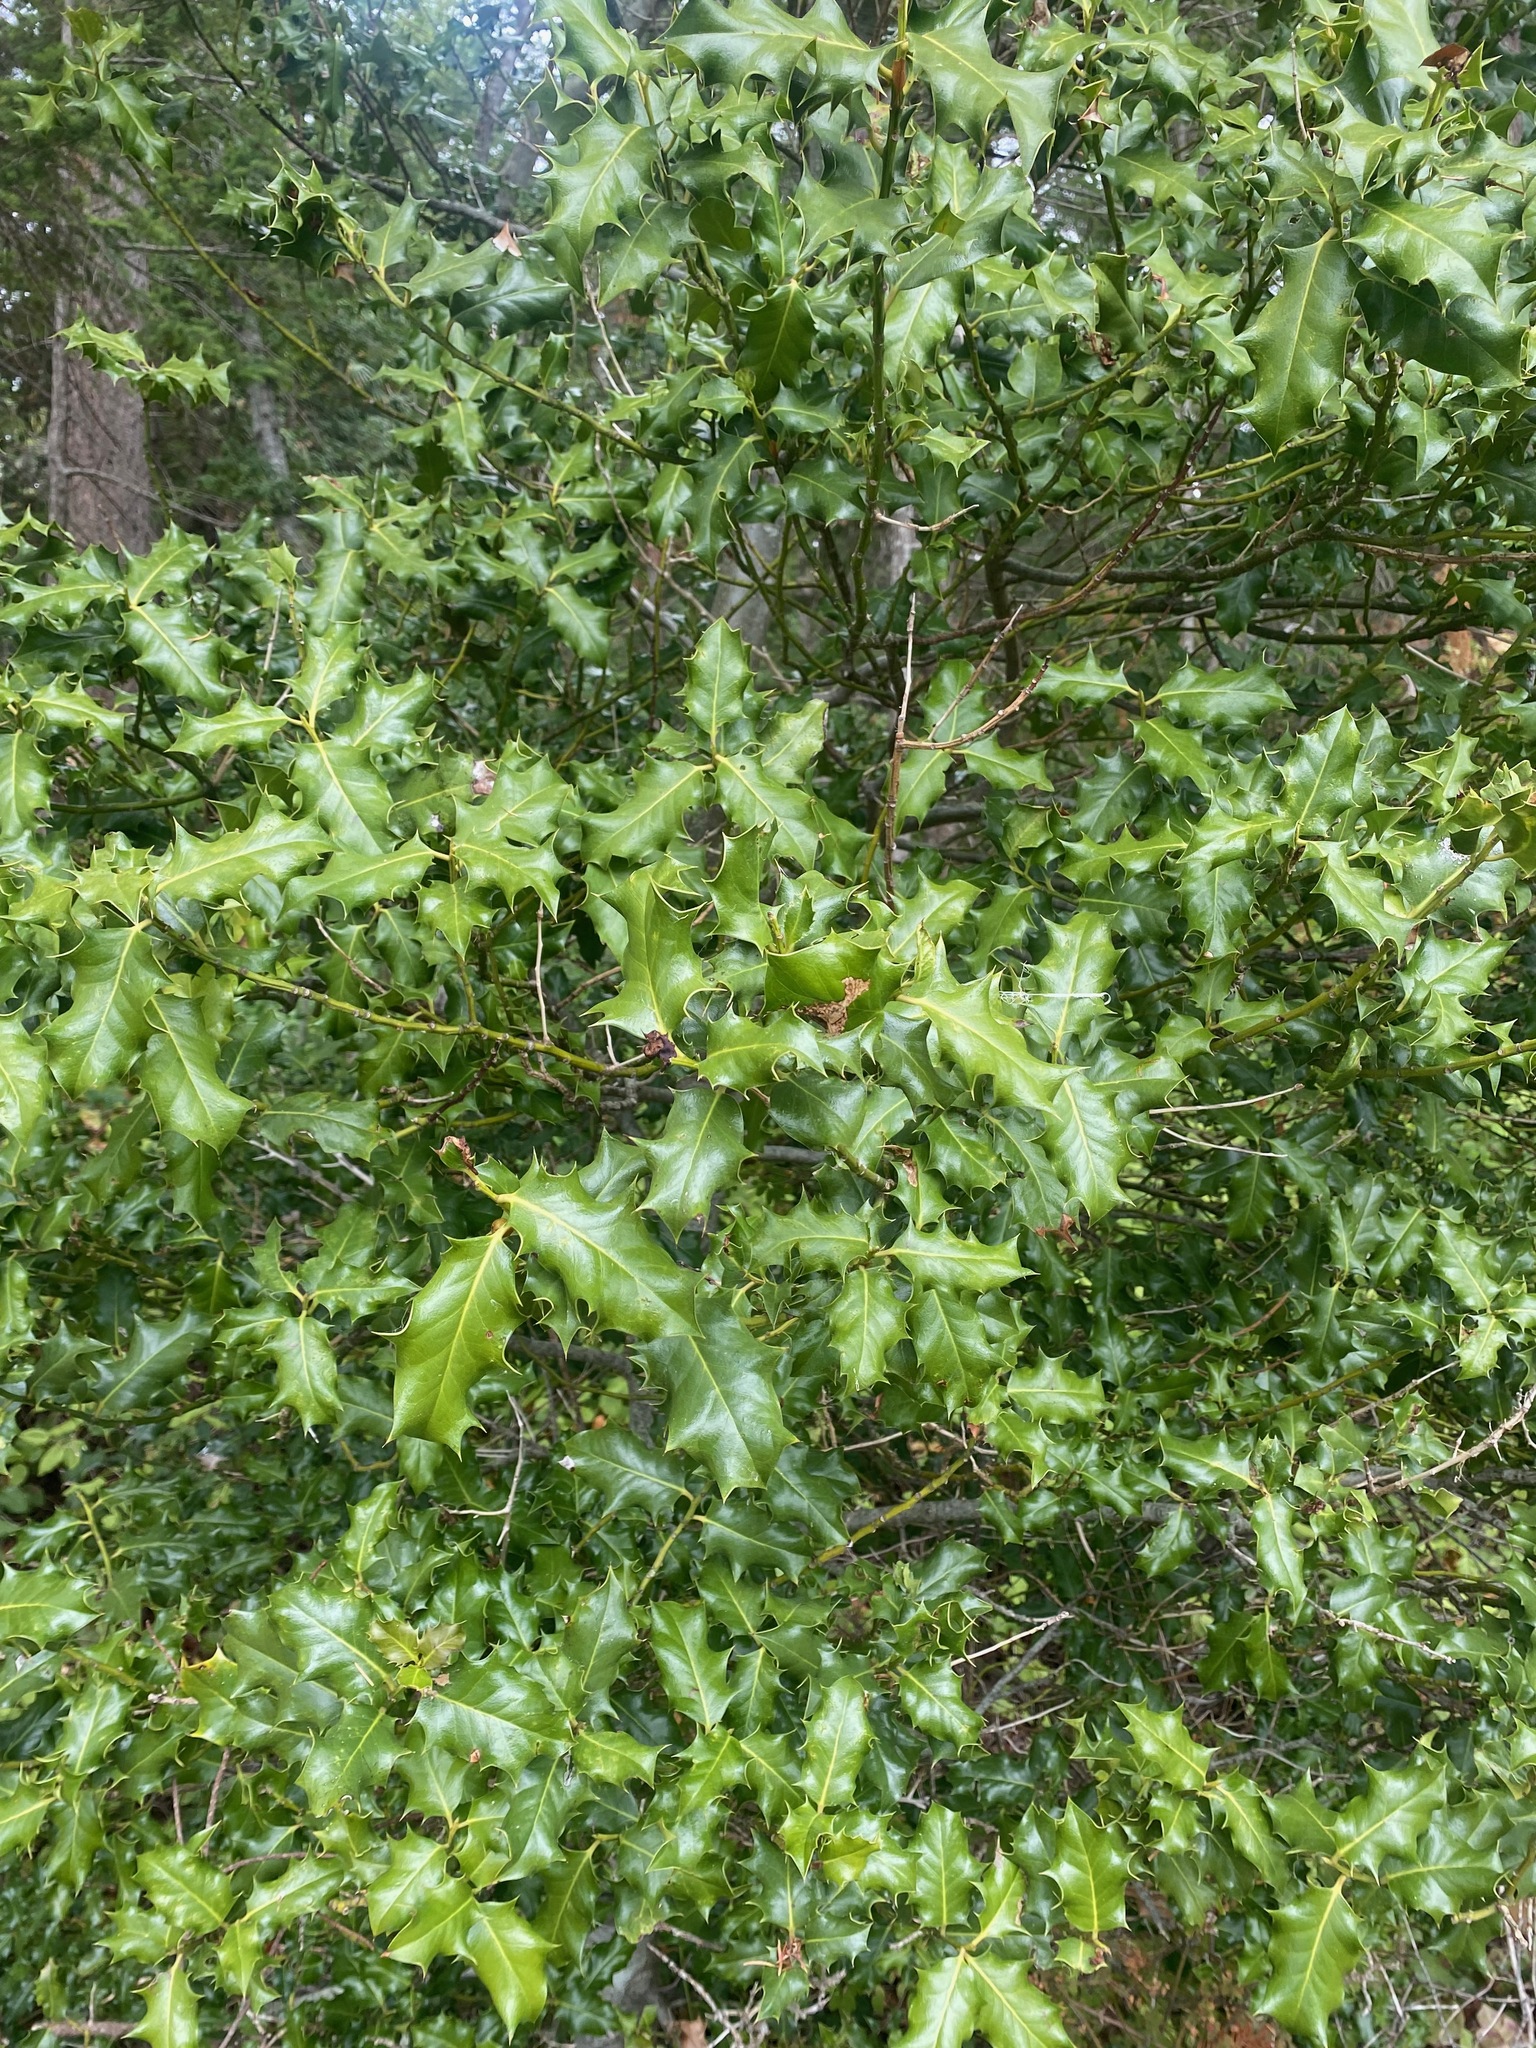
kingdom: Plantae
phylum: Tracheophyta
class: Magnoliopsida
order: Aquifoliales
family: Aquifoliaceae
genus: Ilex
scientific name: Ilex aquifolium
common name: English holly
